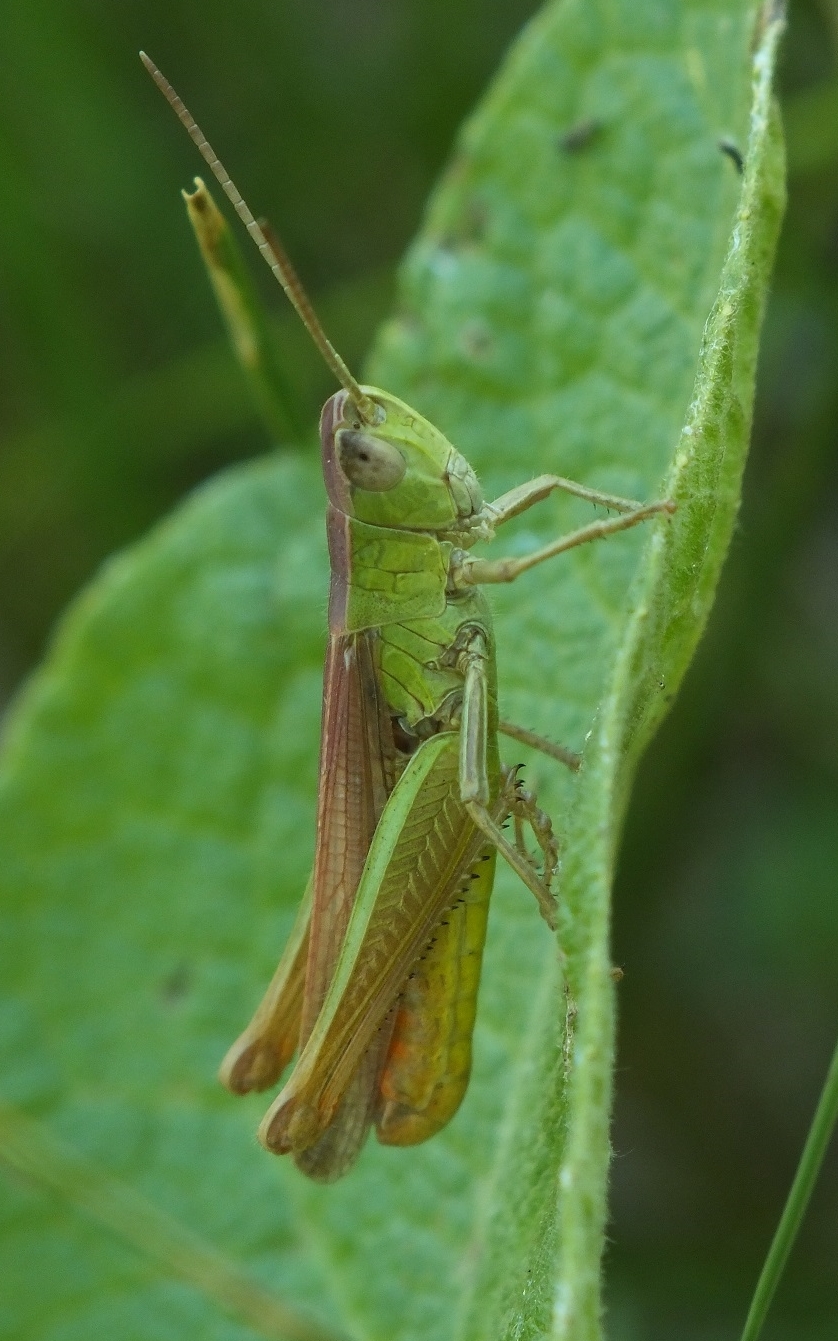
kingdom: Animalia
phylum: Arthropoda
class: Insecta
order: Orthoptera
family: Acrididae
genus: Chorthippus
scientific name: Chorthippus dichrous
